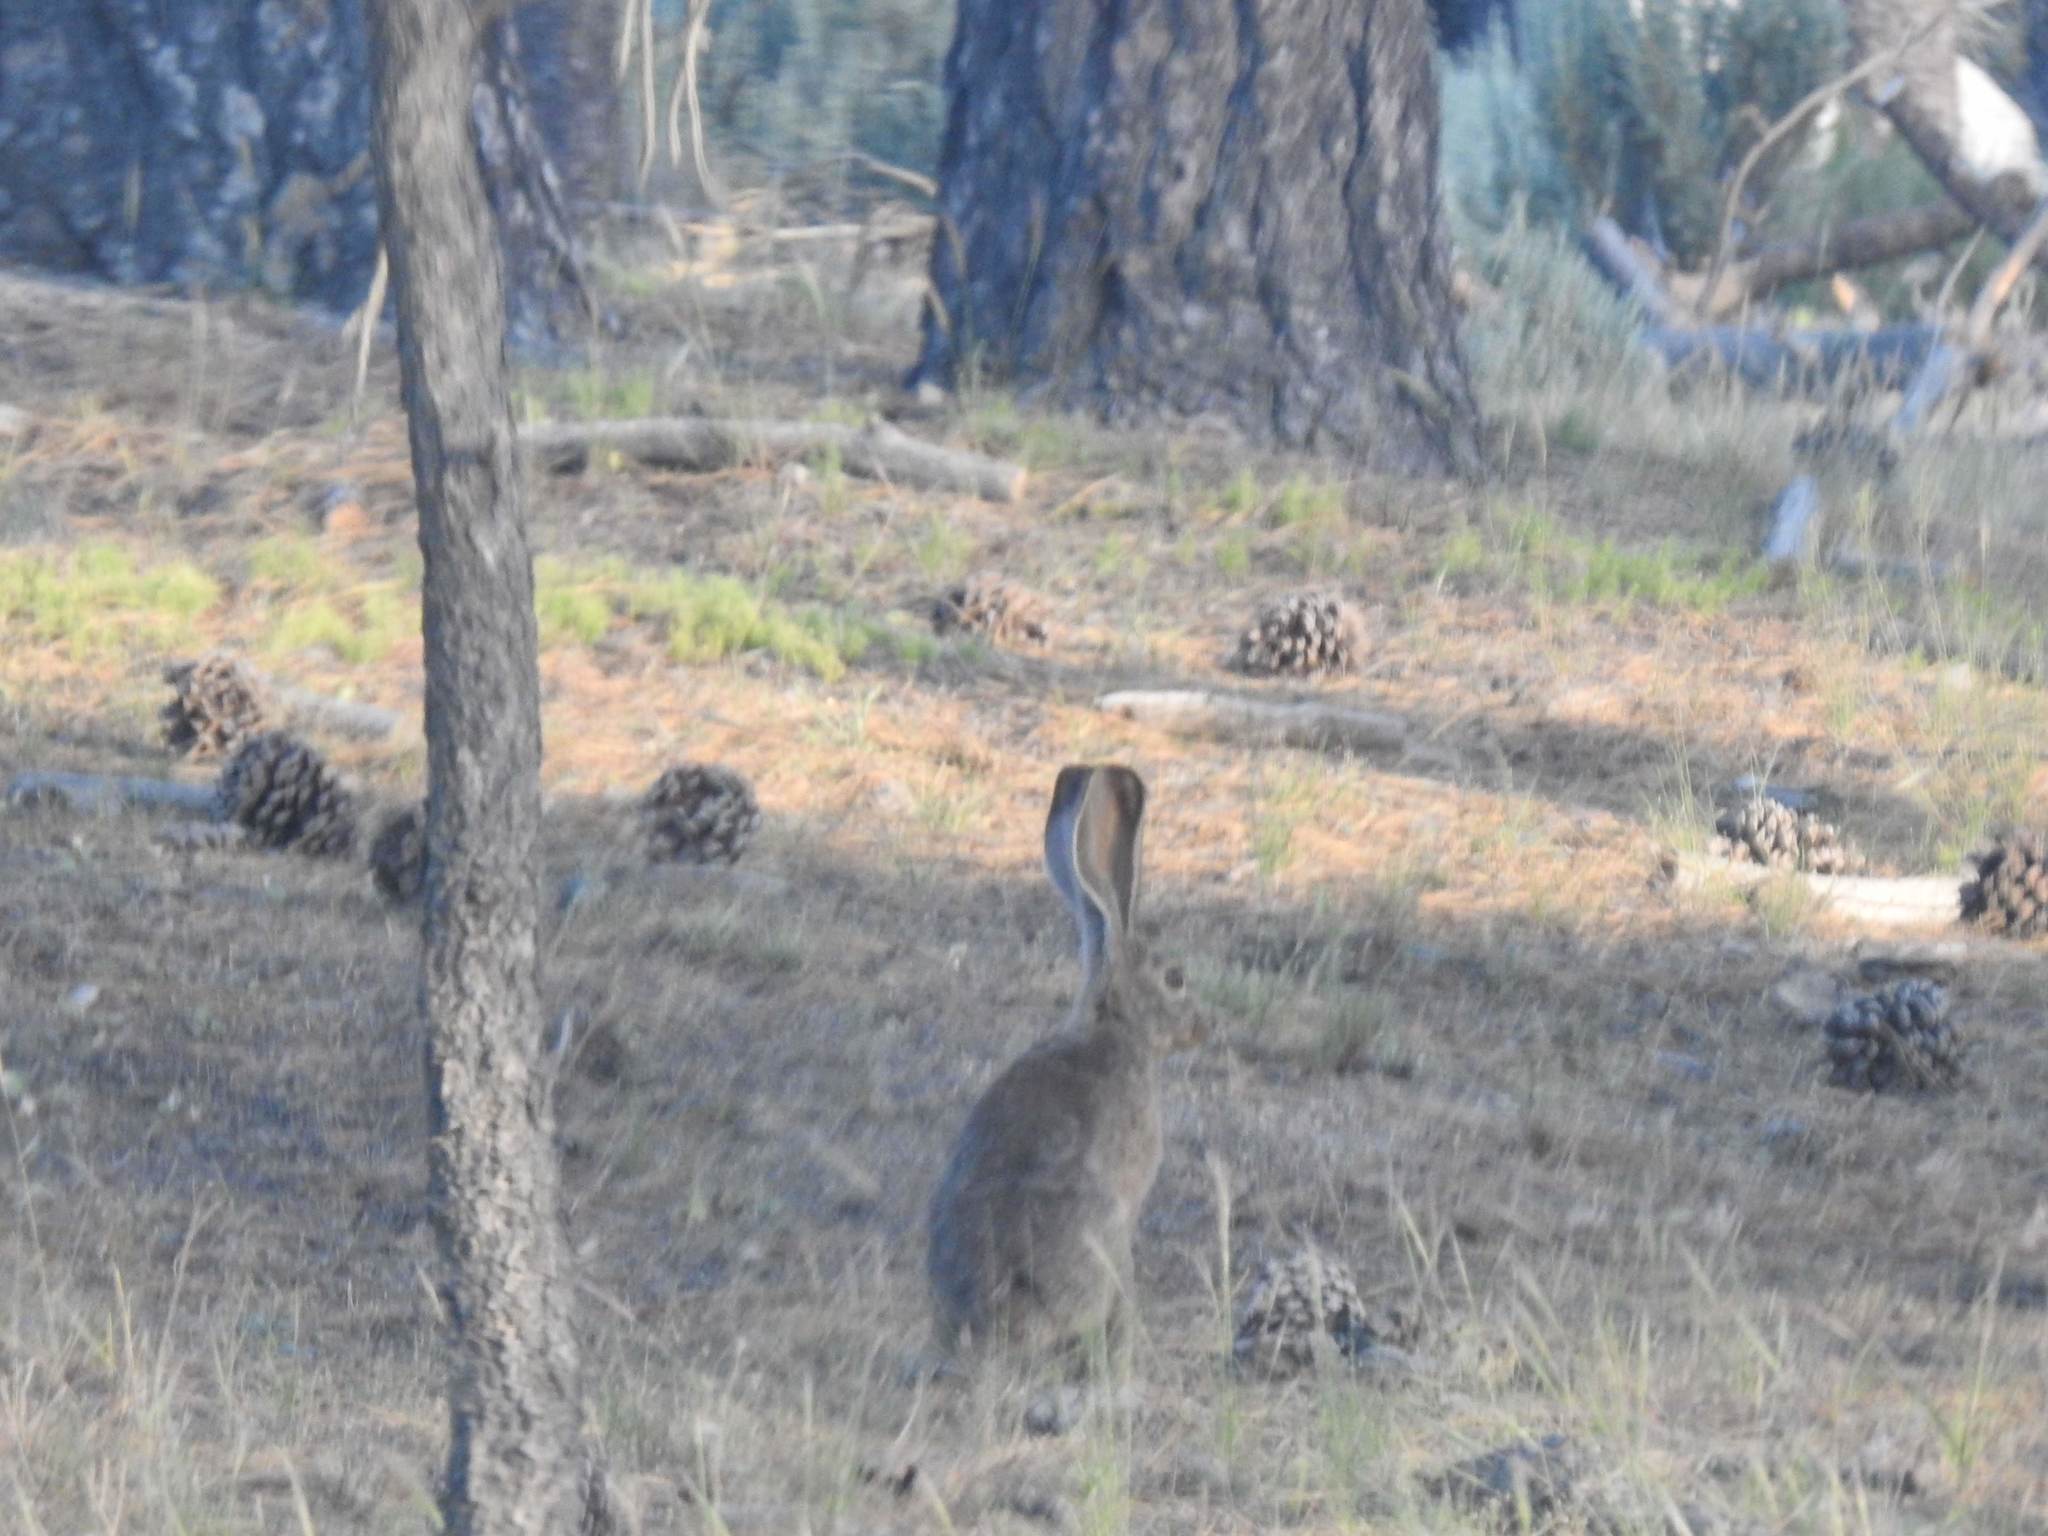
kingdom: Animalia
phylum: Chordata
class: Mammalia
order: Lagomorpha
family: Leporidae
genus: Lepus
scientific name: Lepus californicus
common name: Black-tailed jackrabbit
